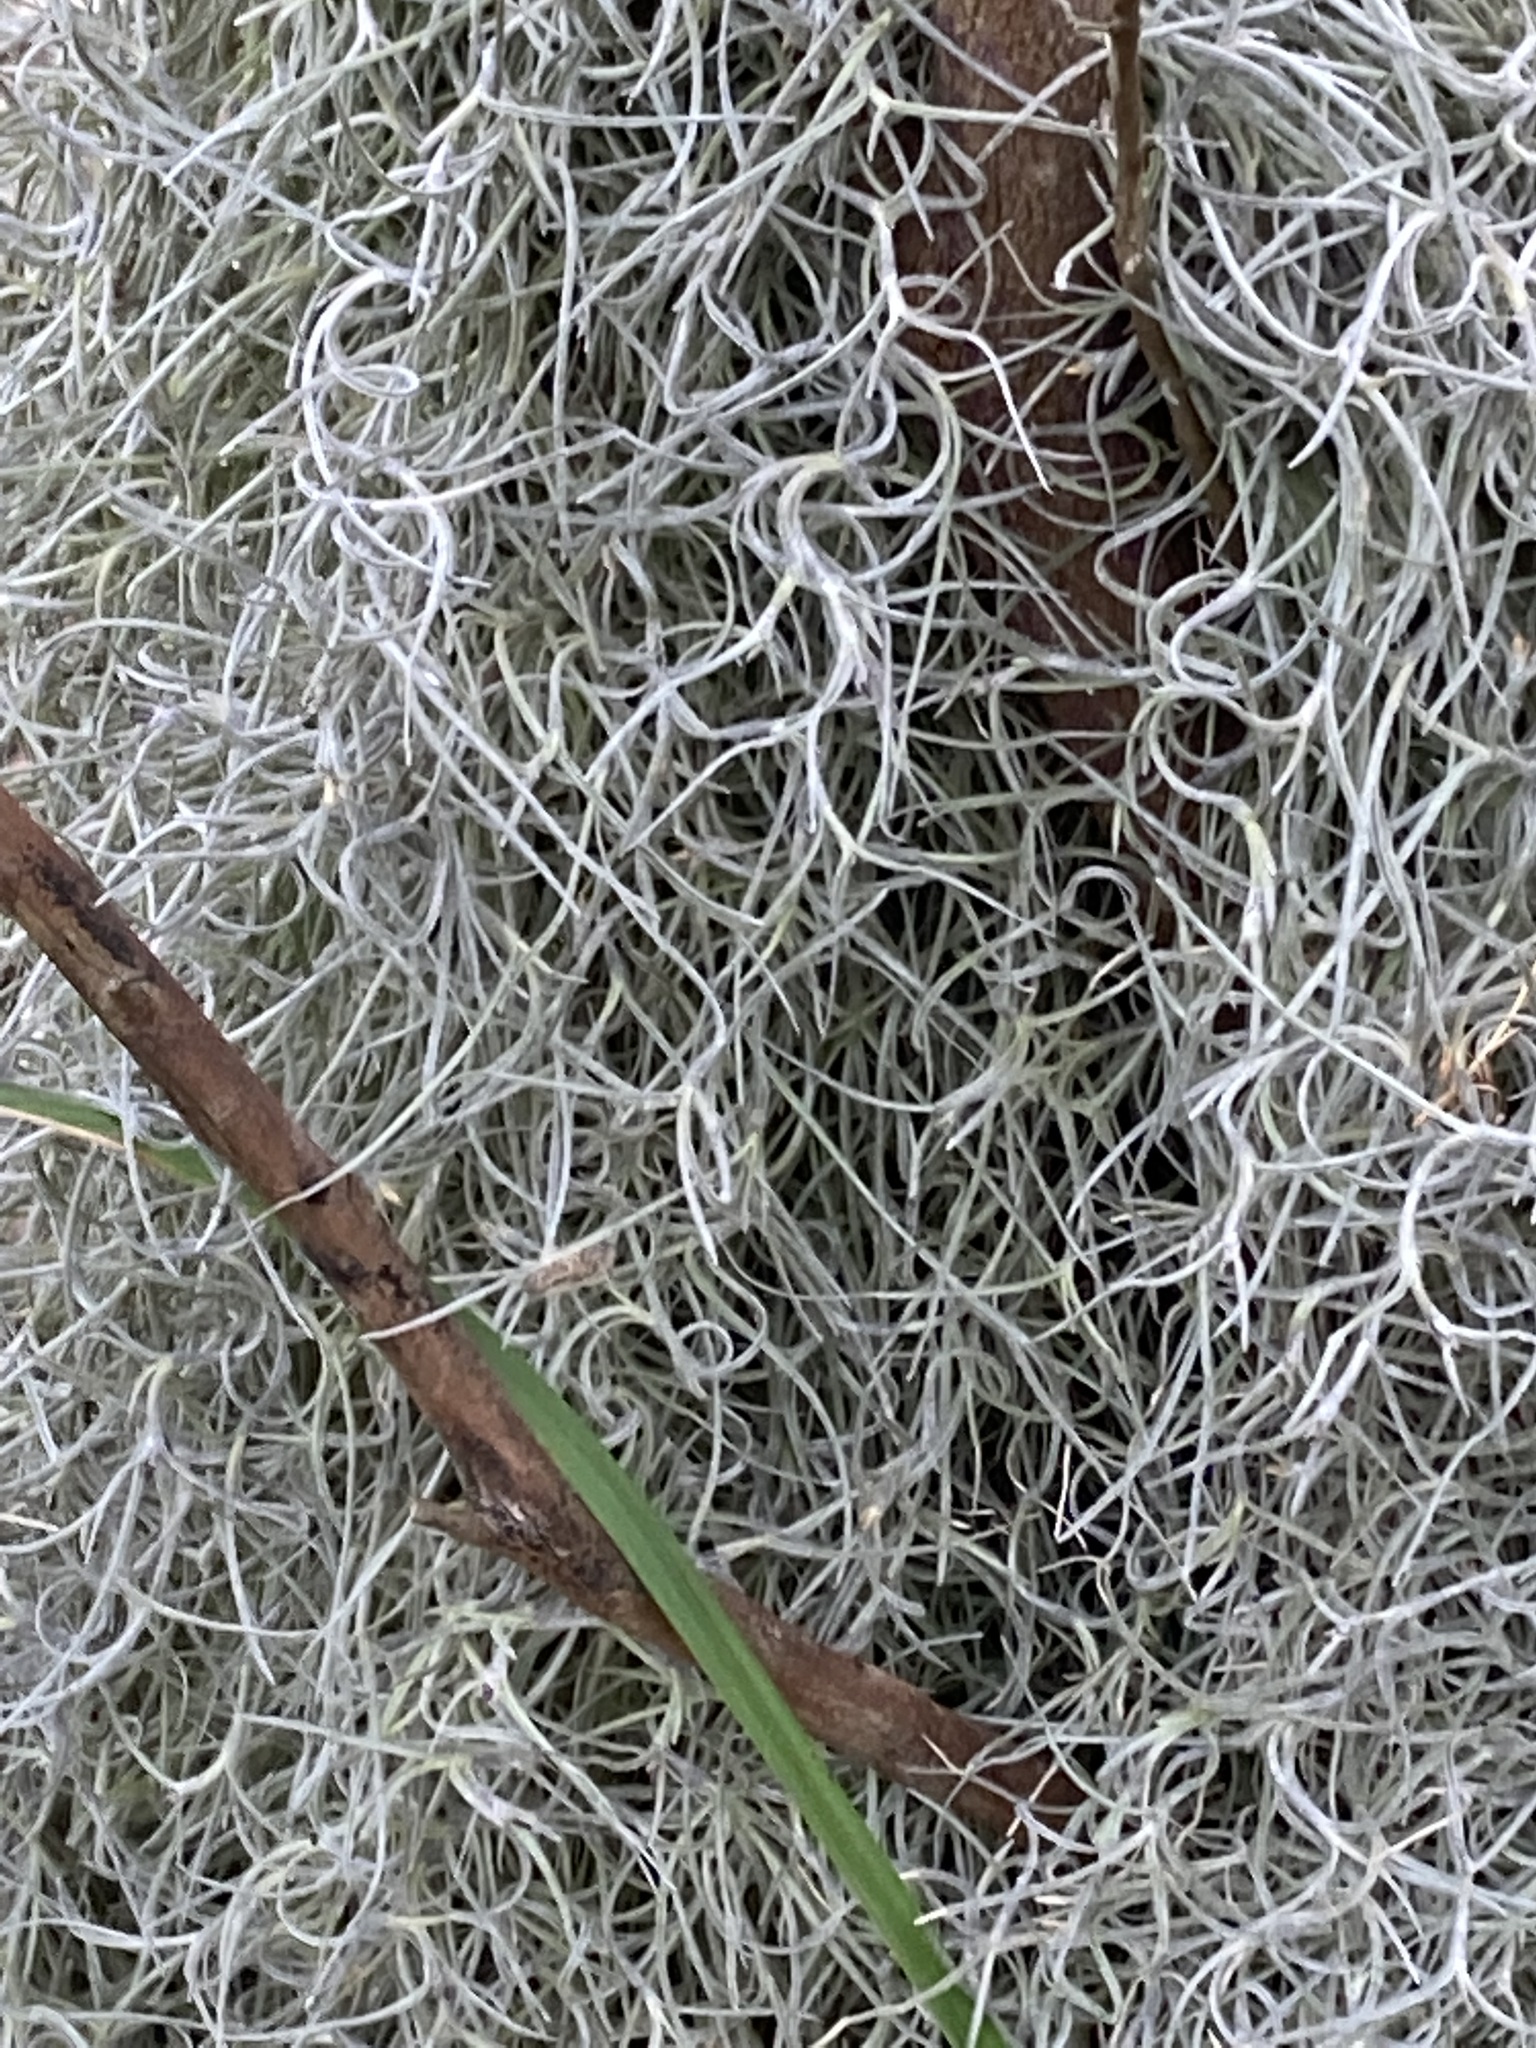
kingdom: Plantae
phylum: Tracheophyta
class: Liliopsida
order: Poales
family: Bromeliaceae
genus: Tillandsia
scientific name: Tillandsia usneoides
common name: Spanish moss
